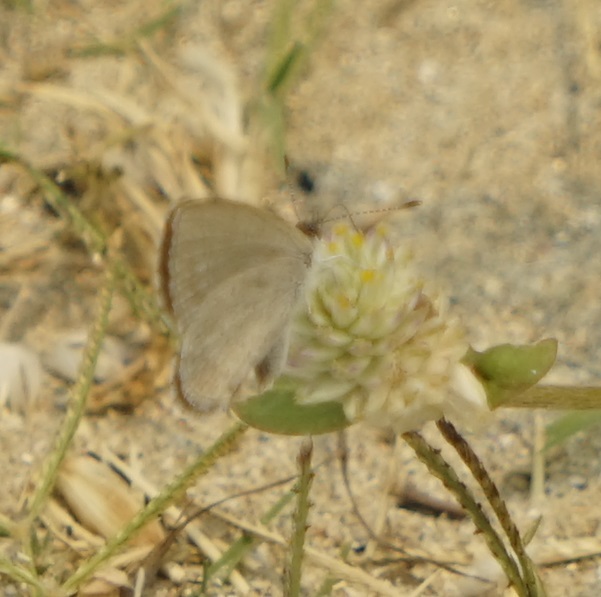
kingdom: Animalia
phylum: Arthropoda
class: Insecta
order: Lepidoptera
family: Lycaenidae
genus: Zizina
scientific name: Zizina labradus
